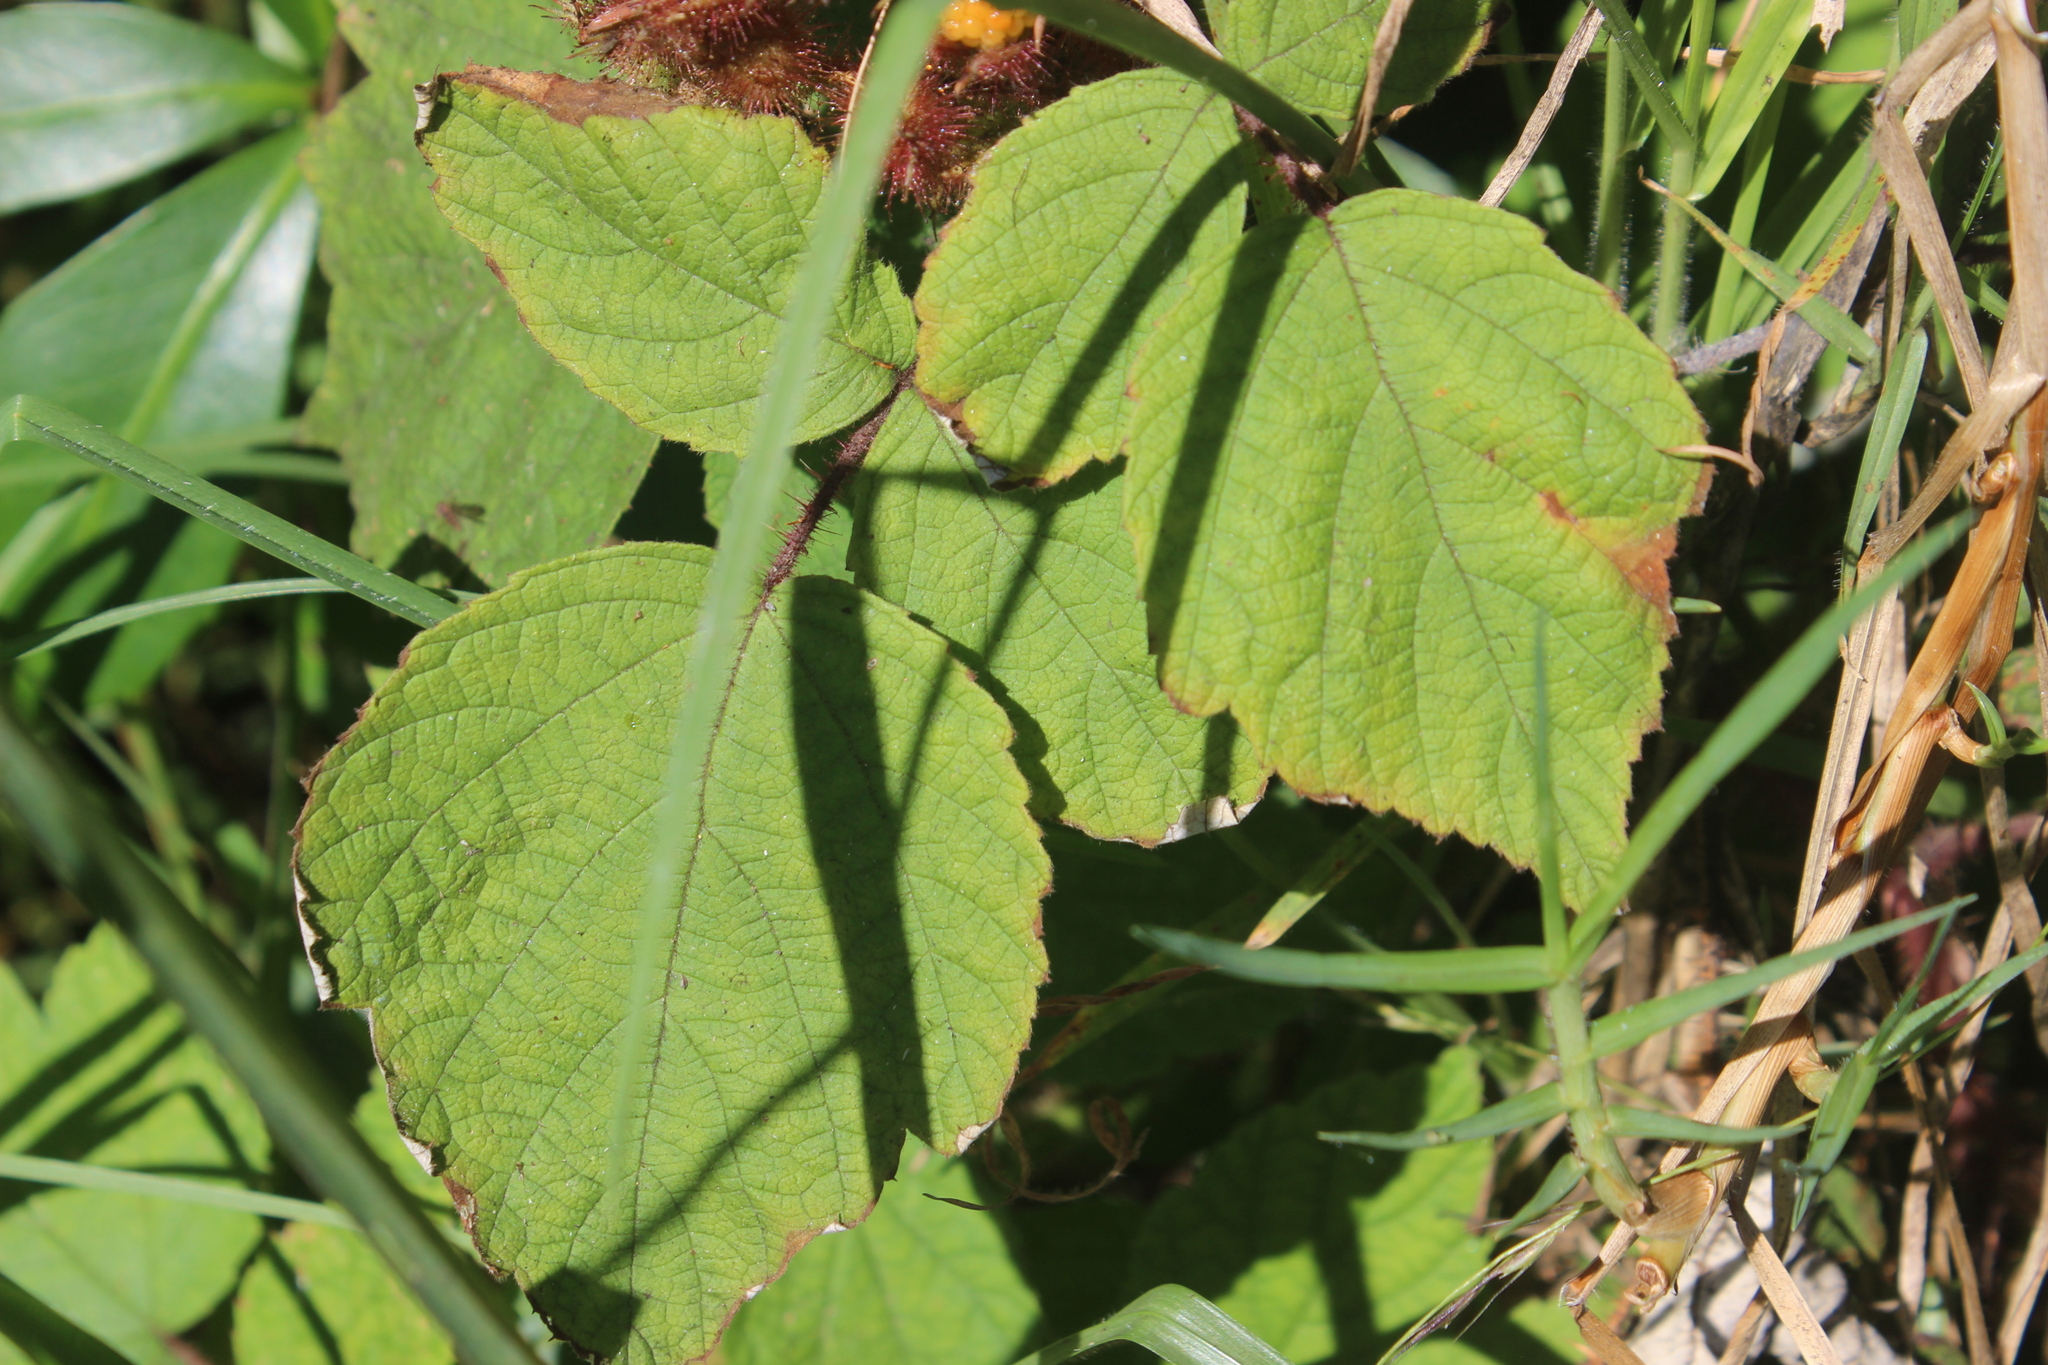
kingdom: Plantae
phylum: Tracheophyta
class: Magnoliopsida
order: Rosales
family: Rosaceae
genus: Rubus
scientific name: Rubus phoenicolasius
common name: Japanese wineberry
